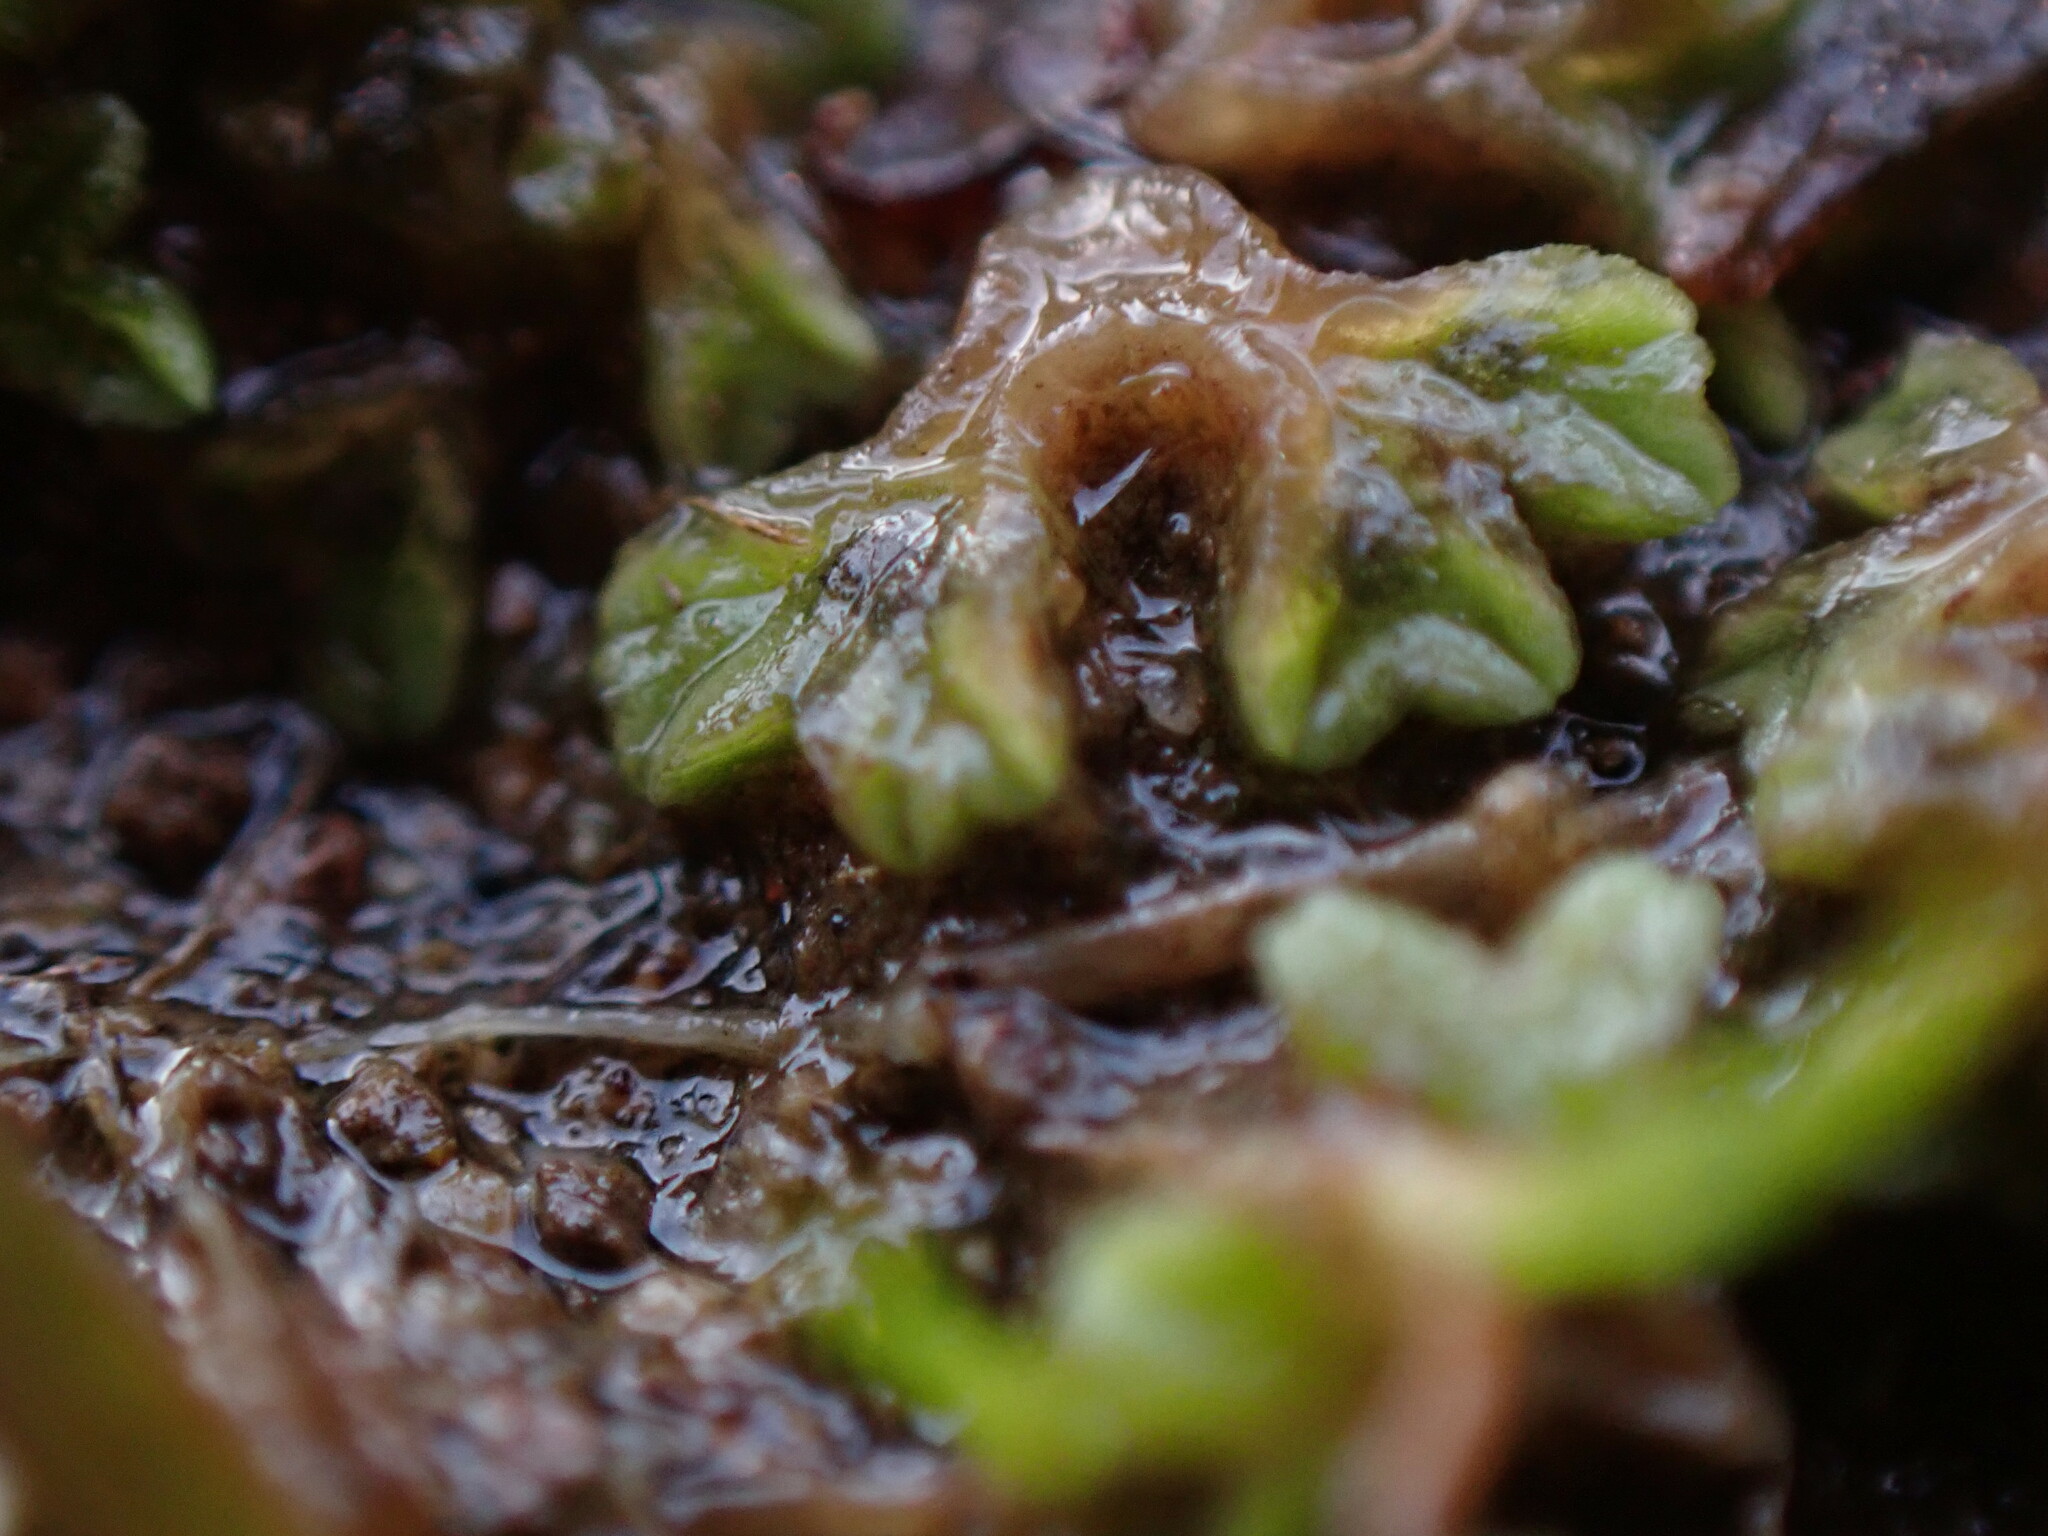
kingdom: Plantae
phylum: Marchantiophyta
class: Marchantiopsida
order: Marchantiales
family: Ricciaceae
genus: Riccia
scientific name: Riccia sorocarpa
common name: Common crystalwort
